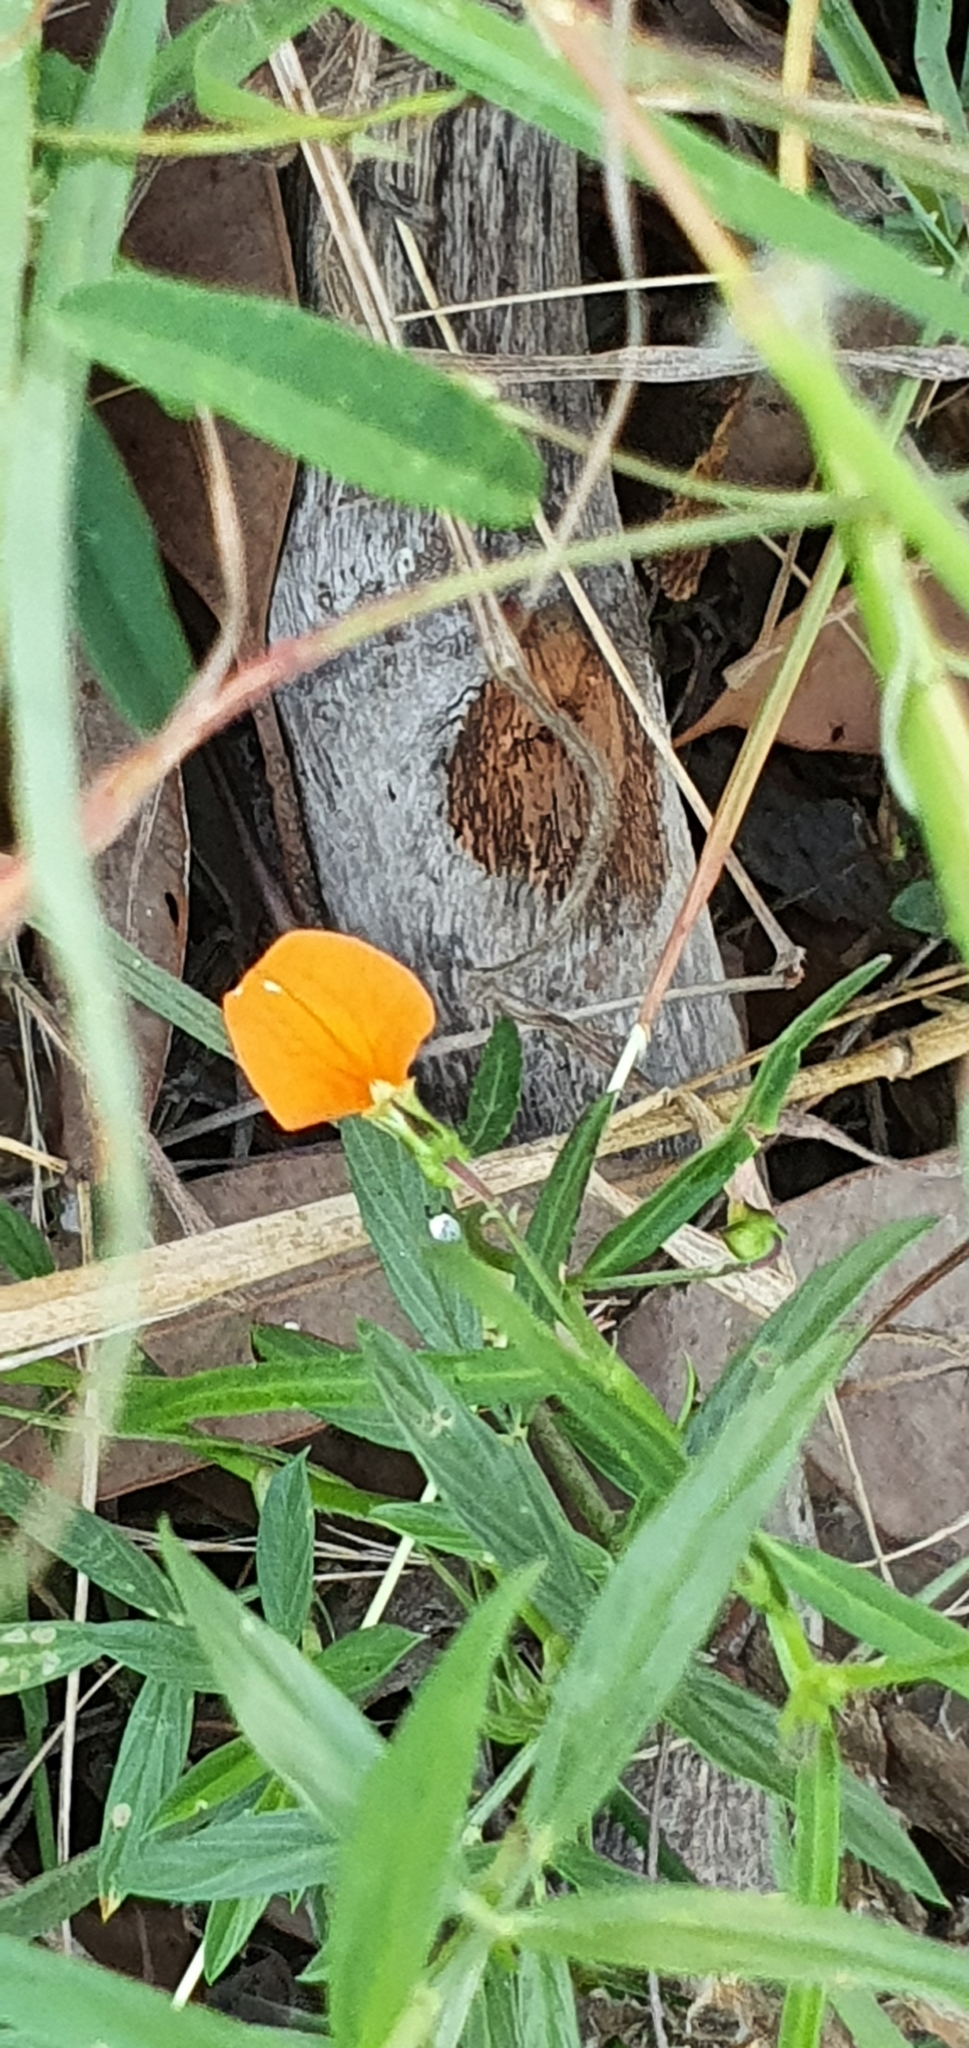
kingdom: Plantae
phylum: Tracheophyta
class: Magnoliopsida
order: Malpighiales
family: Violaceae
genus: Pigea
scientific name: Pigea stellarioides
